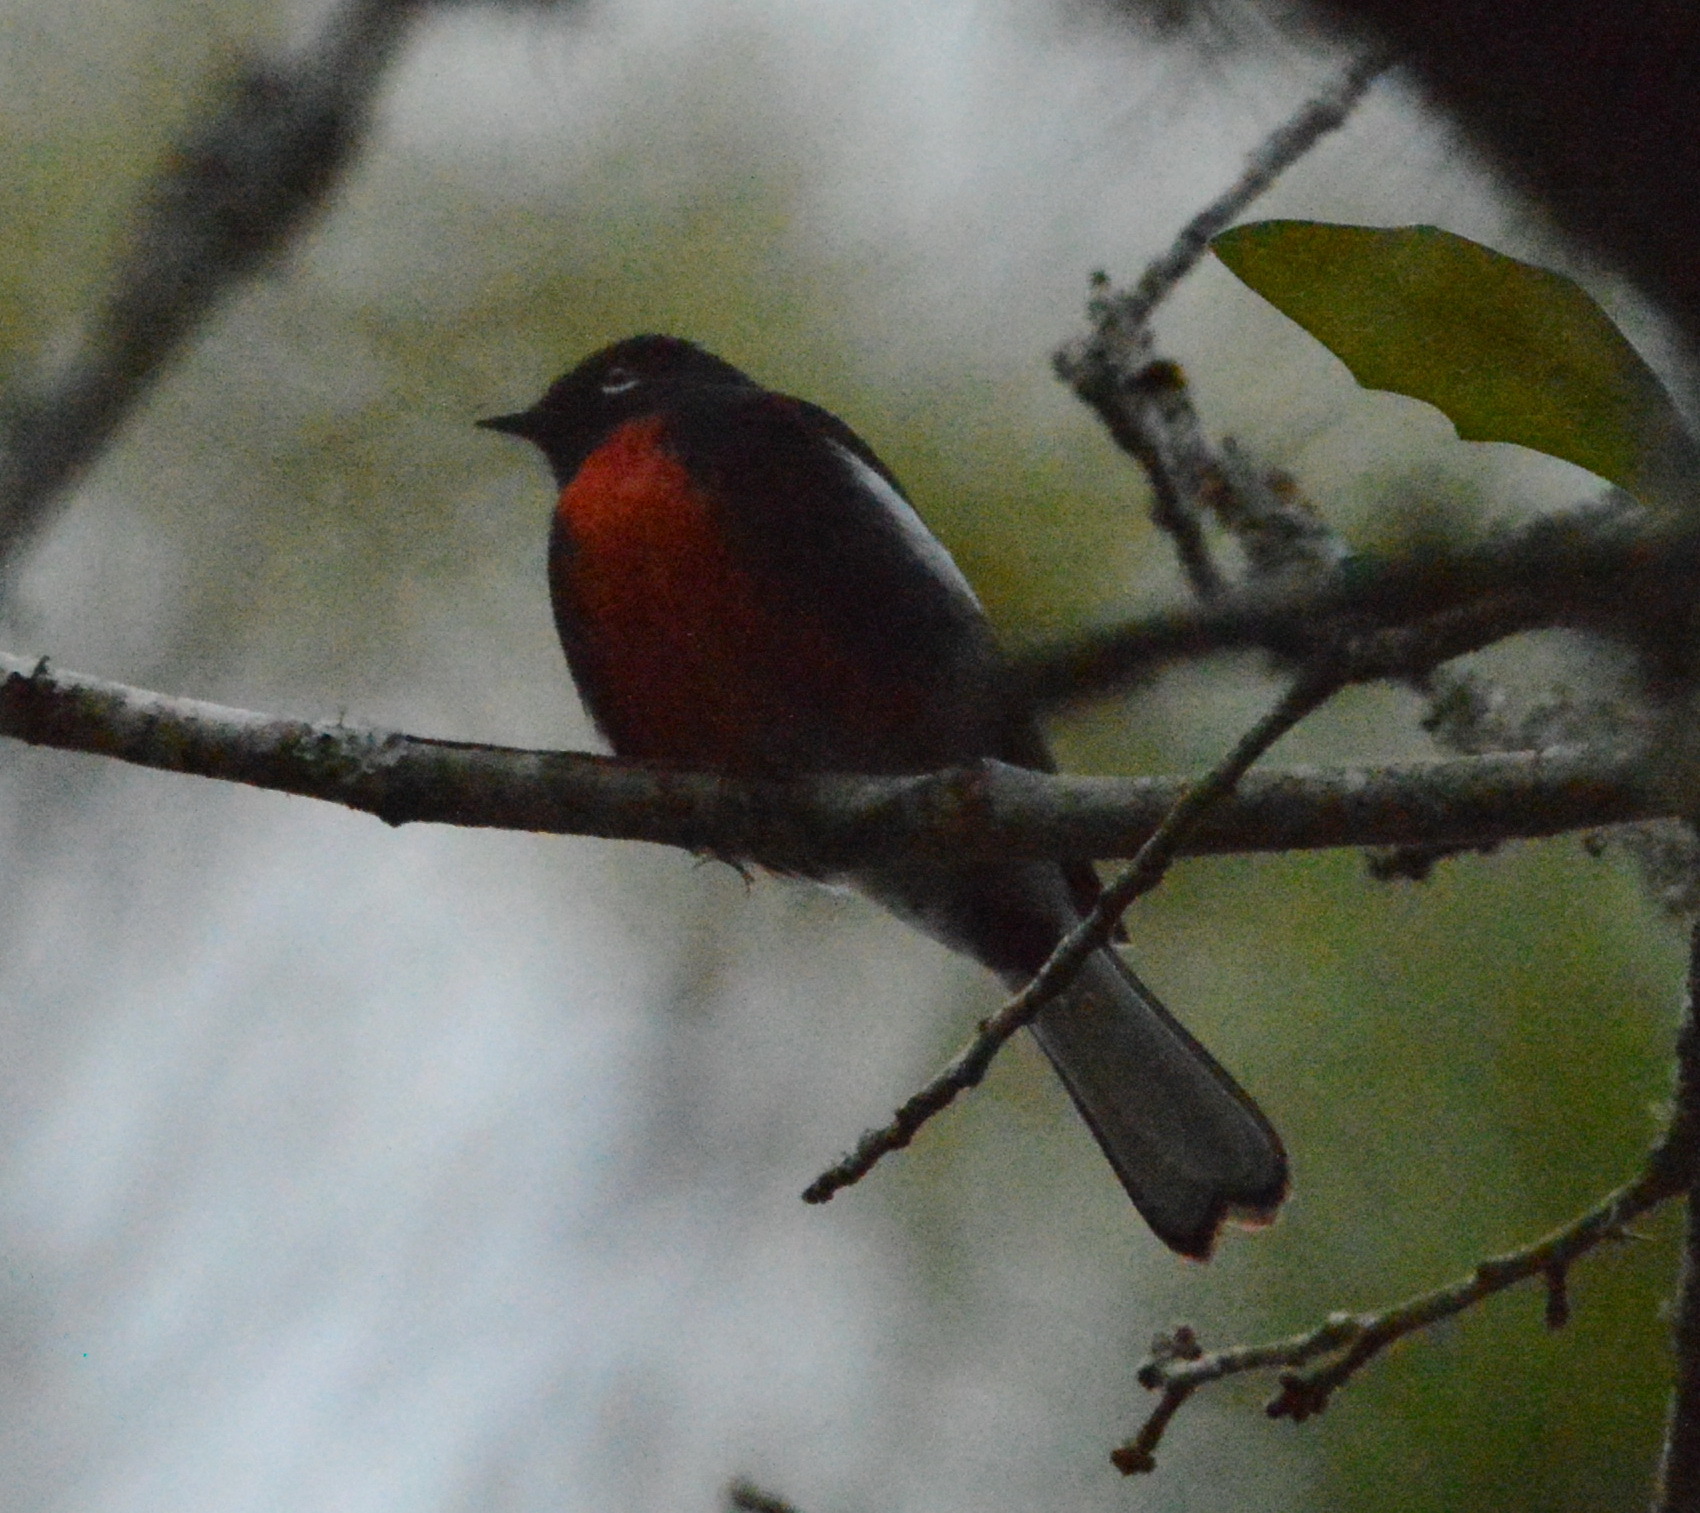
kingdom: Animalia
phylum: Chordata
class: Aves
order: Passeriformes
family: Parulidae
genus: Myioborus
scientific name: Myioborus pictus
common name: Painted whitestart
